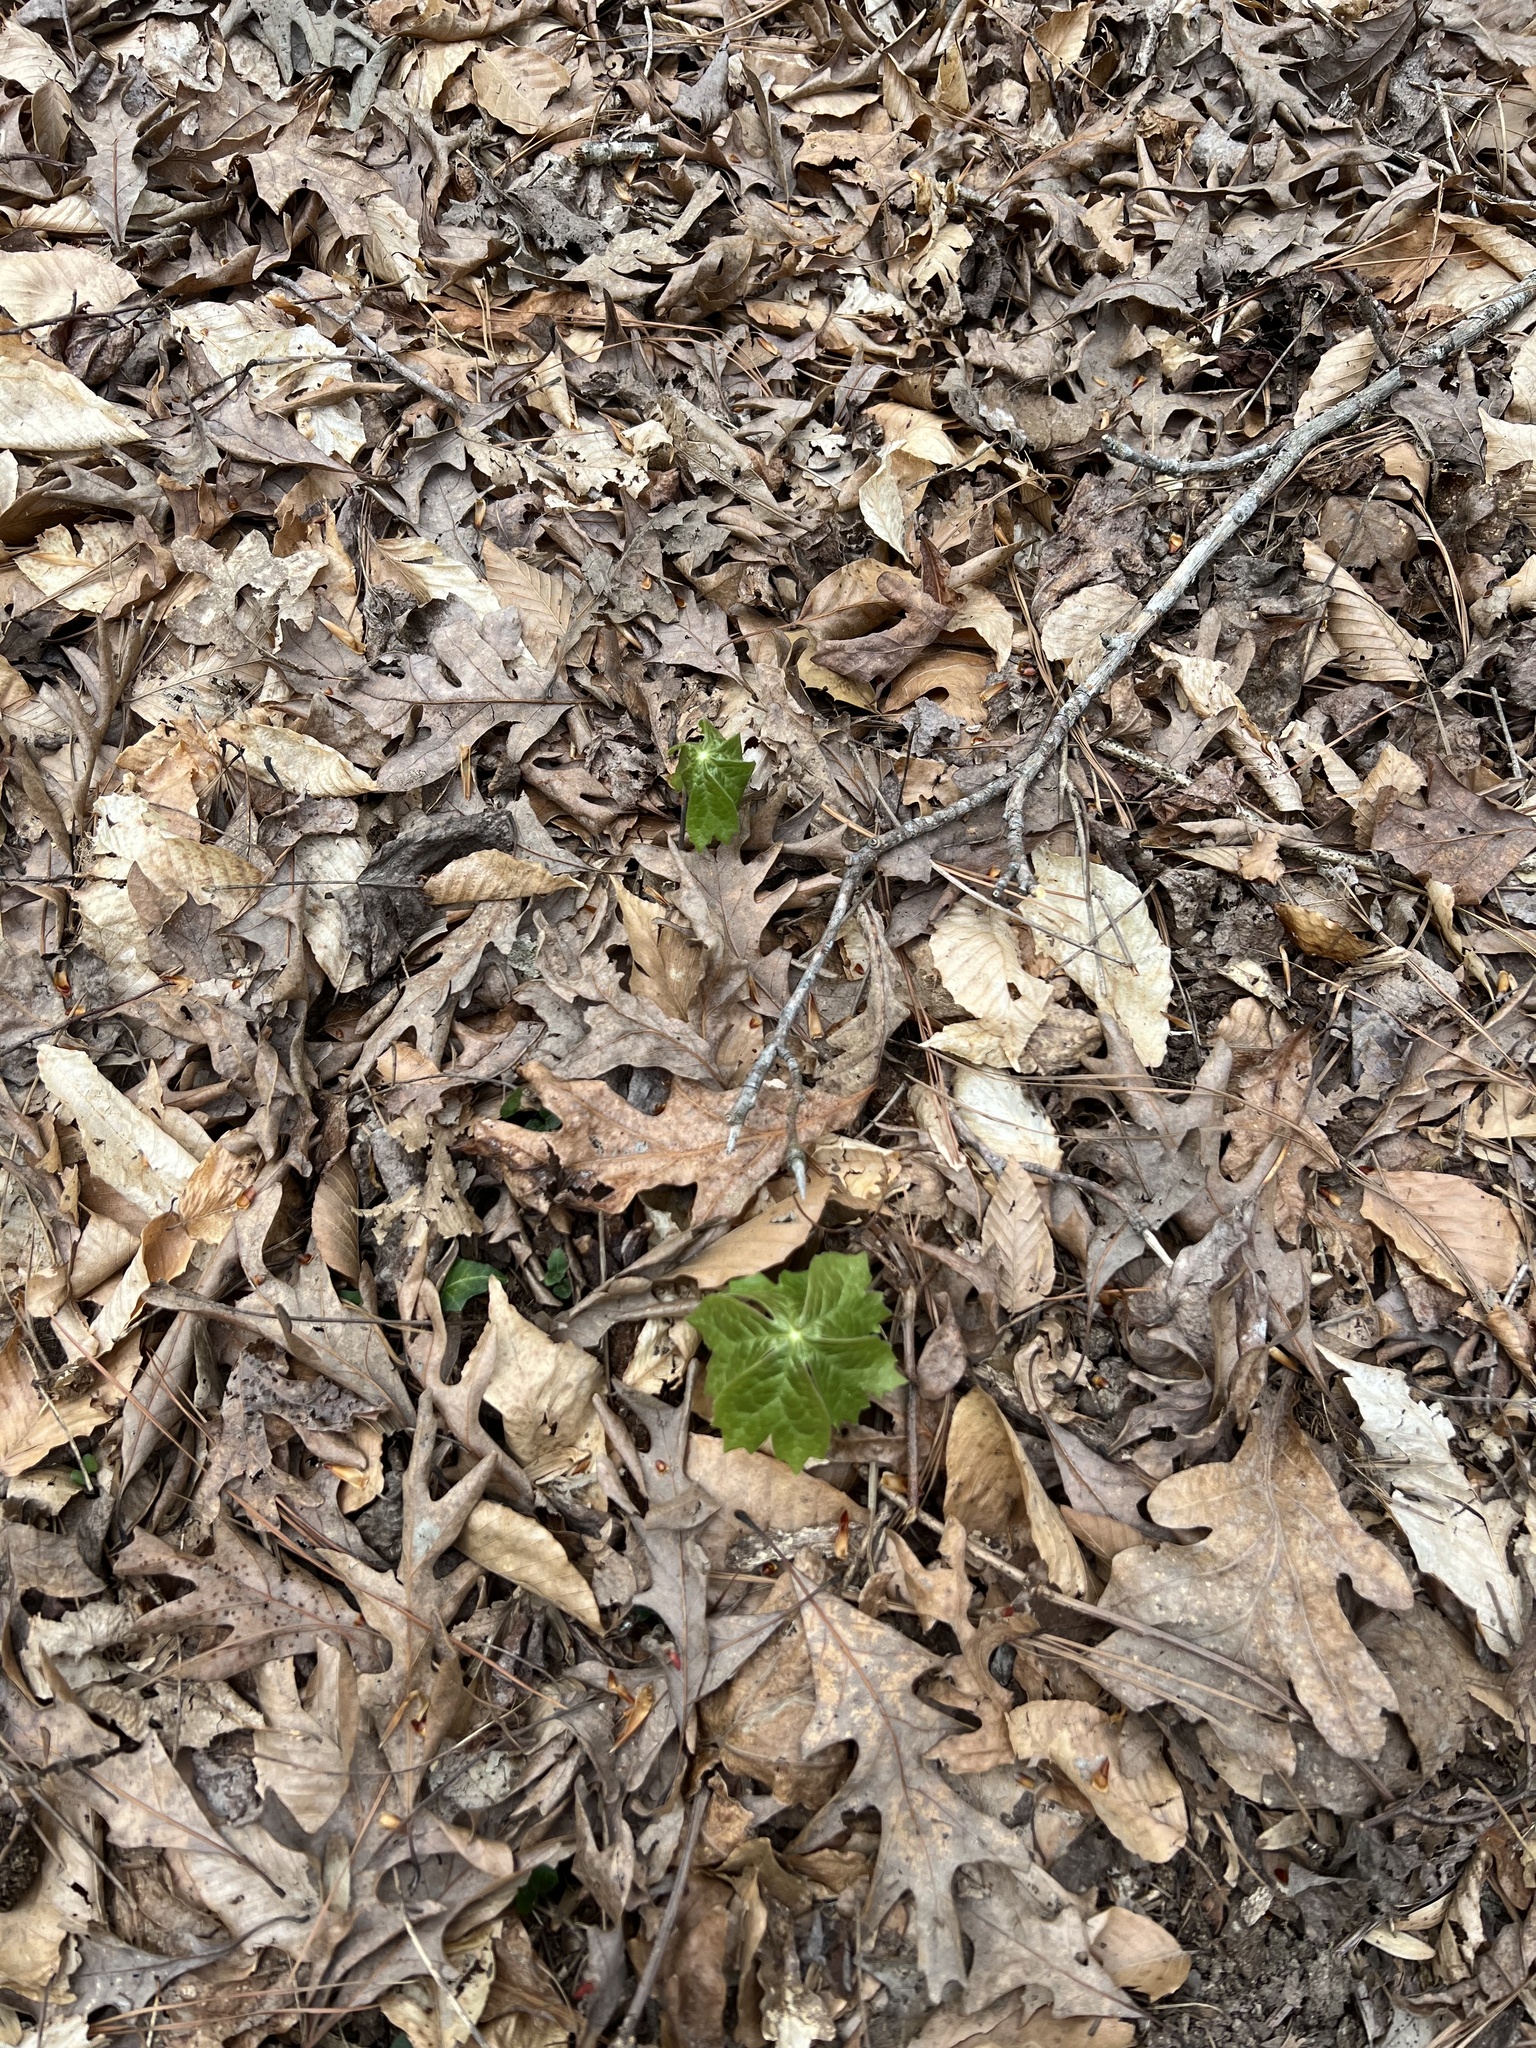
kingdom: Plantae
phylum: Tracheophyta
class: Magnoliopsida
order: Ranunculales
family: Berberidaceae
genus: Podophyllum
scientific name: Podophyllum peltatum
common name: Wild mandrake
